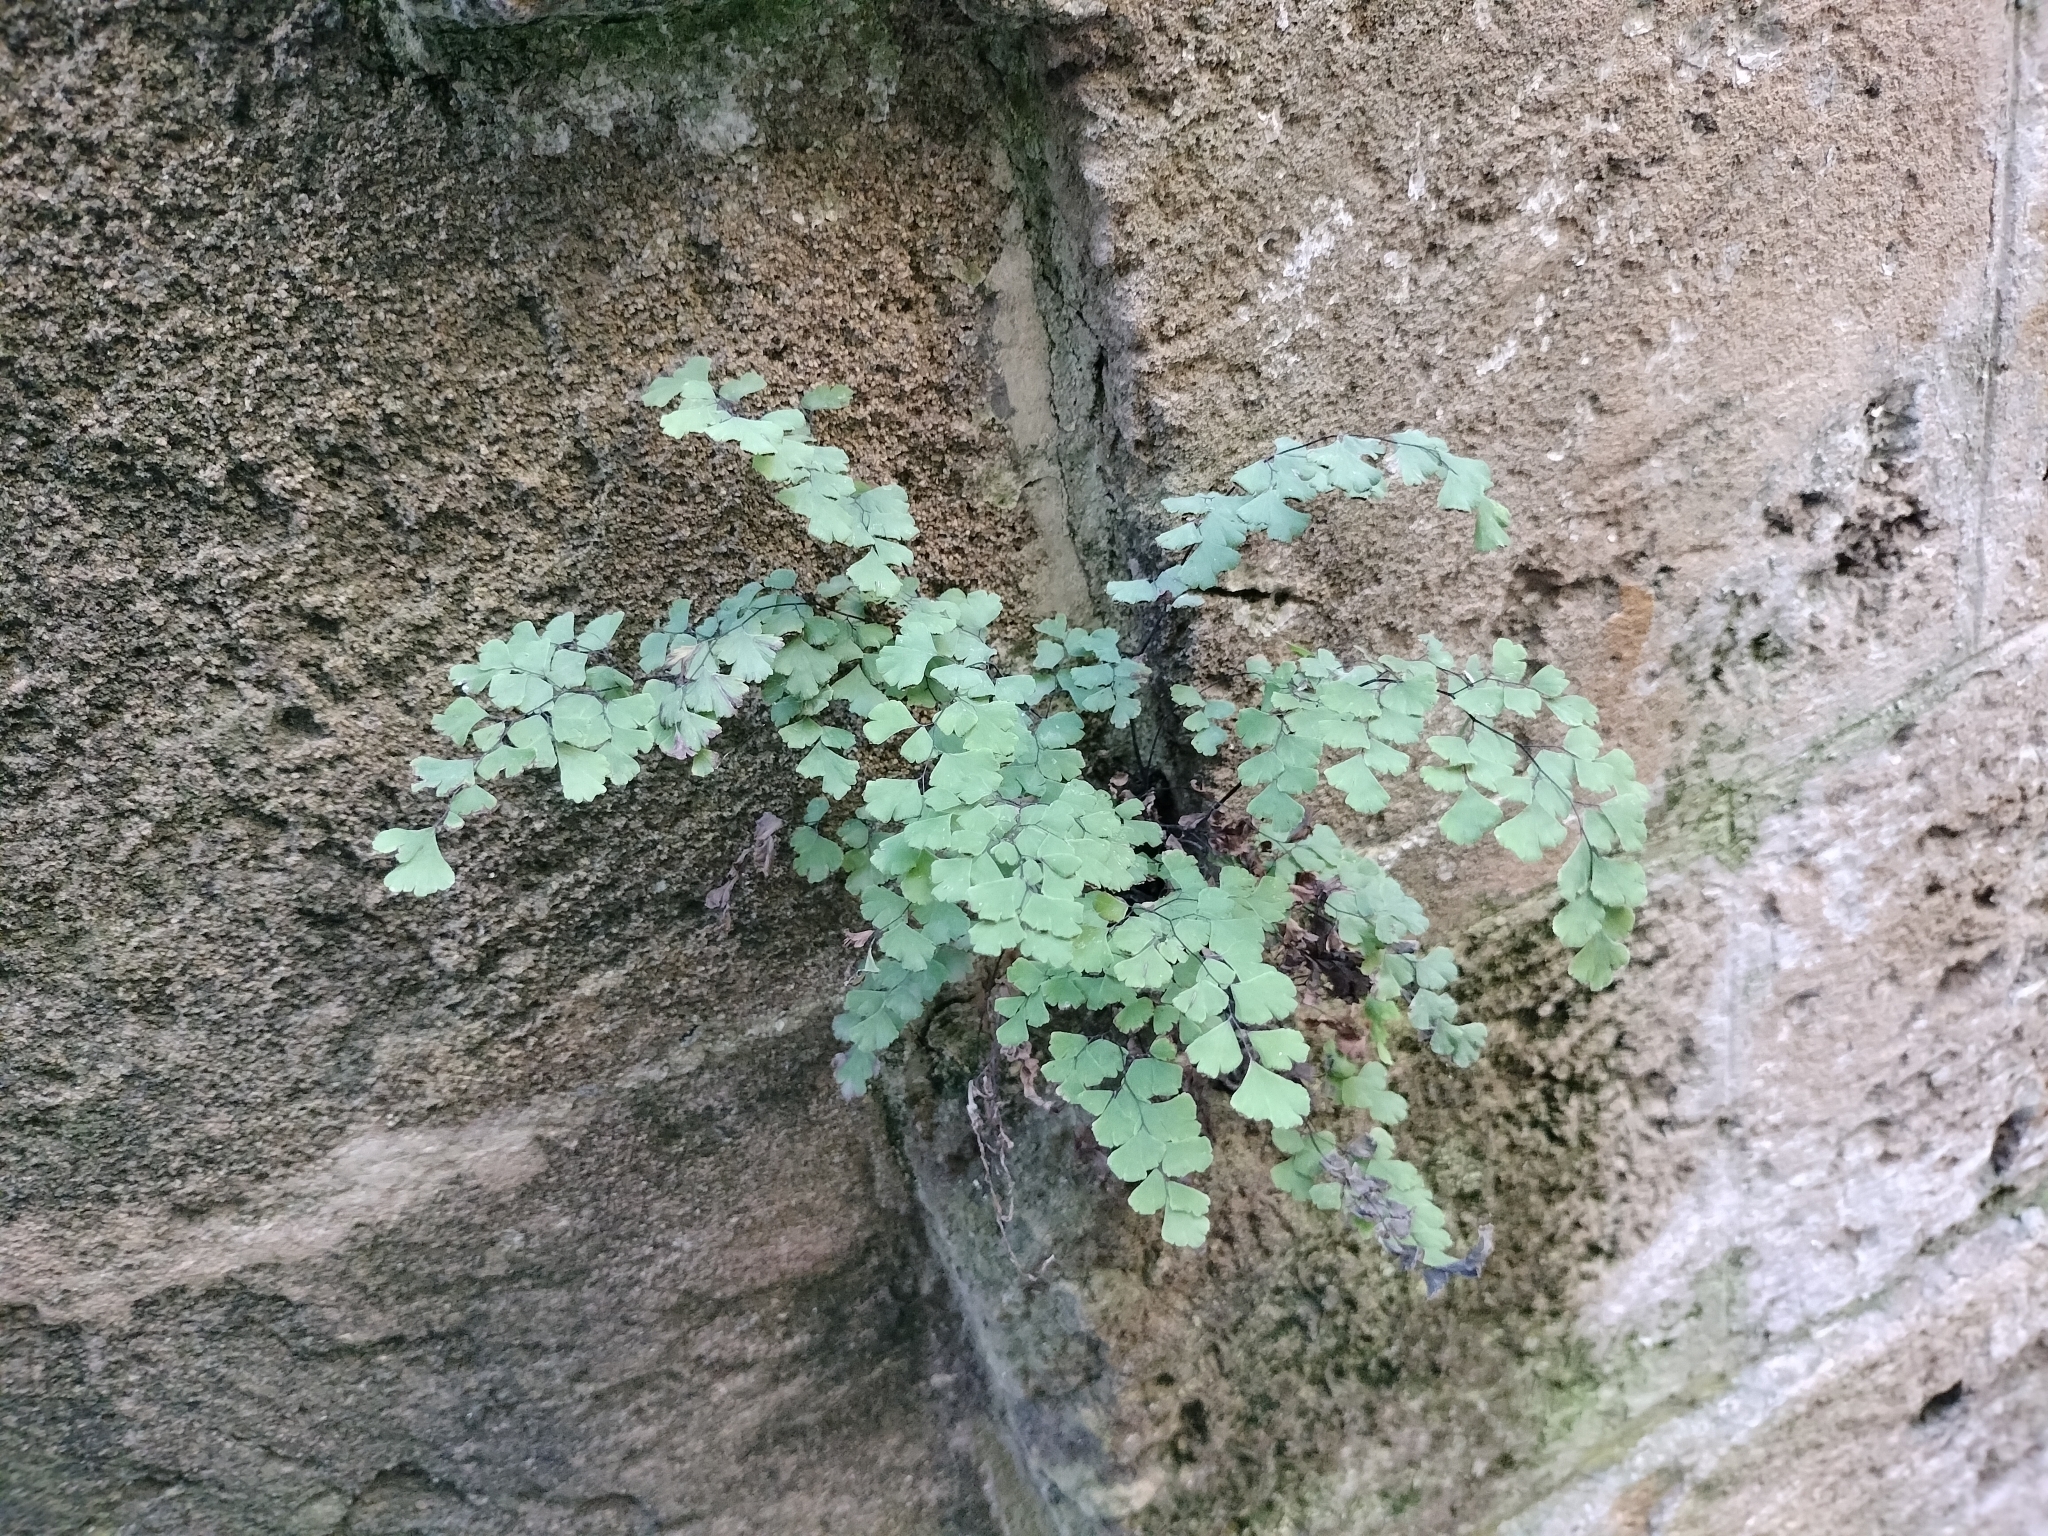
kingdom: Plantae
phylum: Tracheophyta
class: Polypodiopsida
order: Polypodiales
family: Pteridaceae
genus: Adiantum
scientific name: Adiantum capillus-veneris
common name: Maidenhair fern
